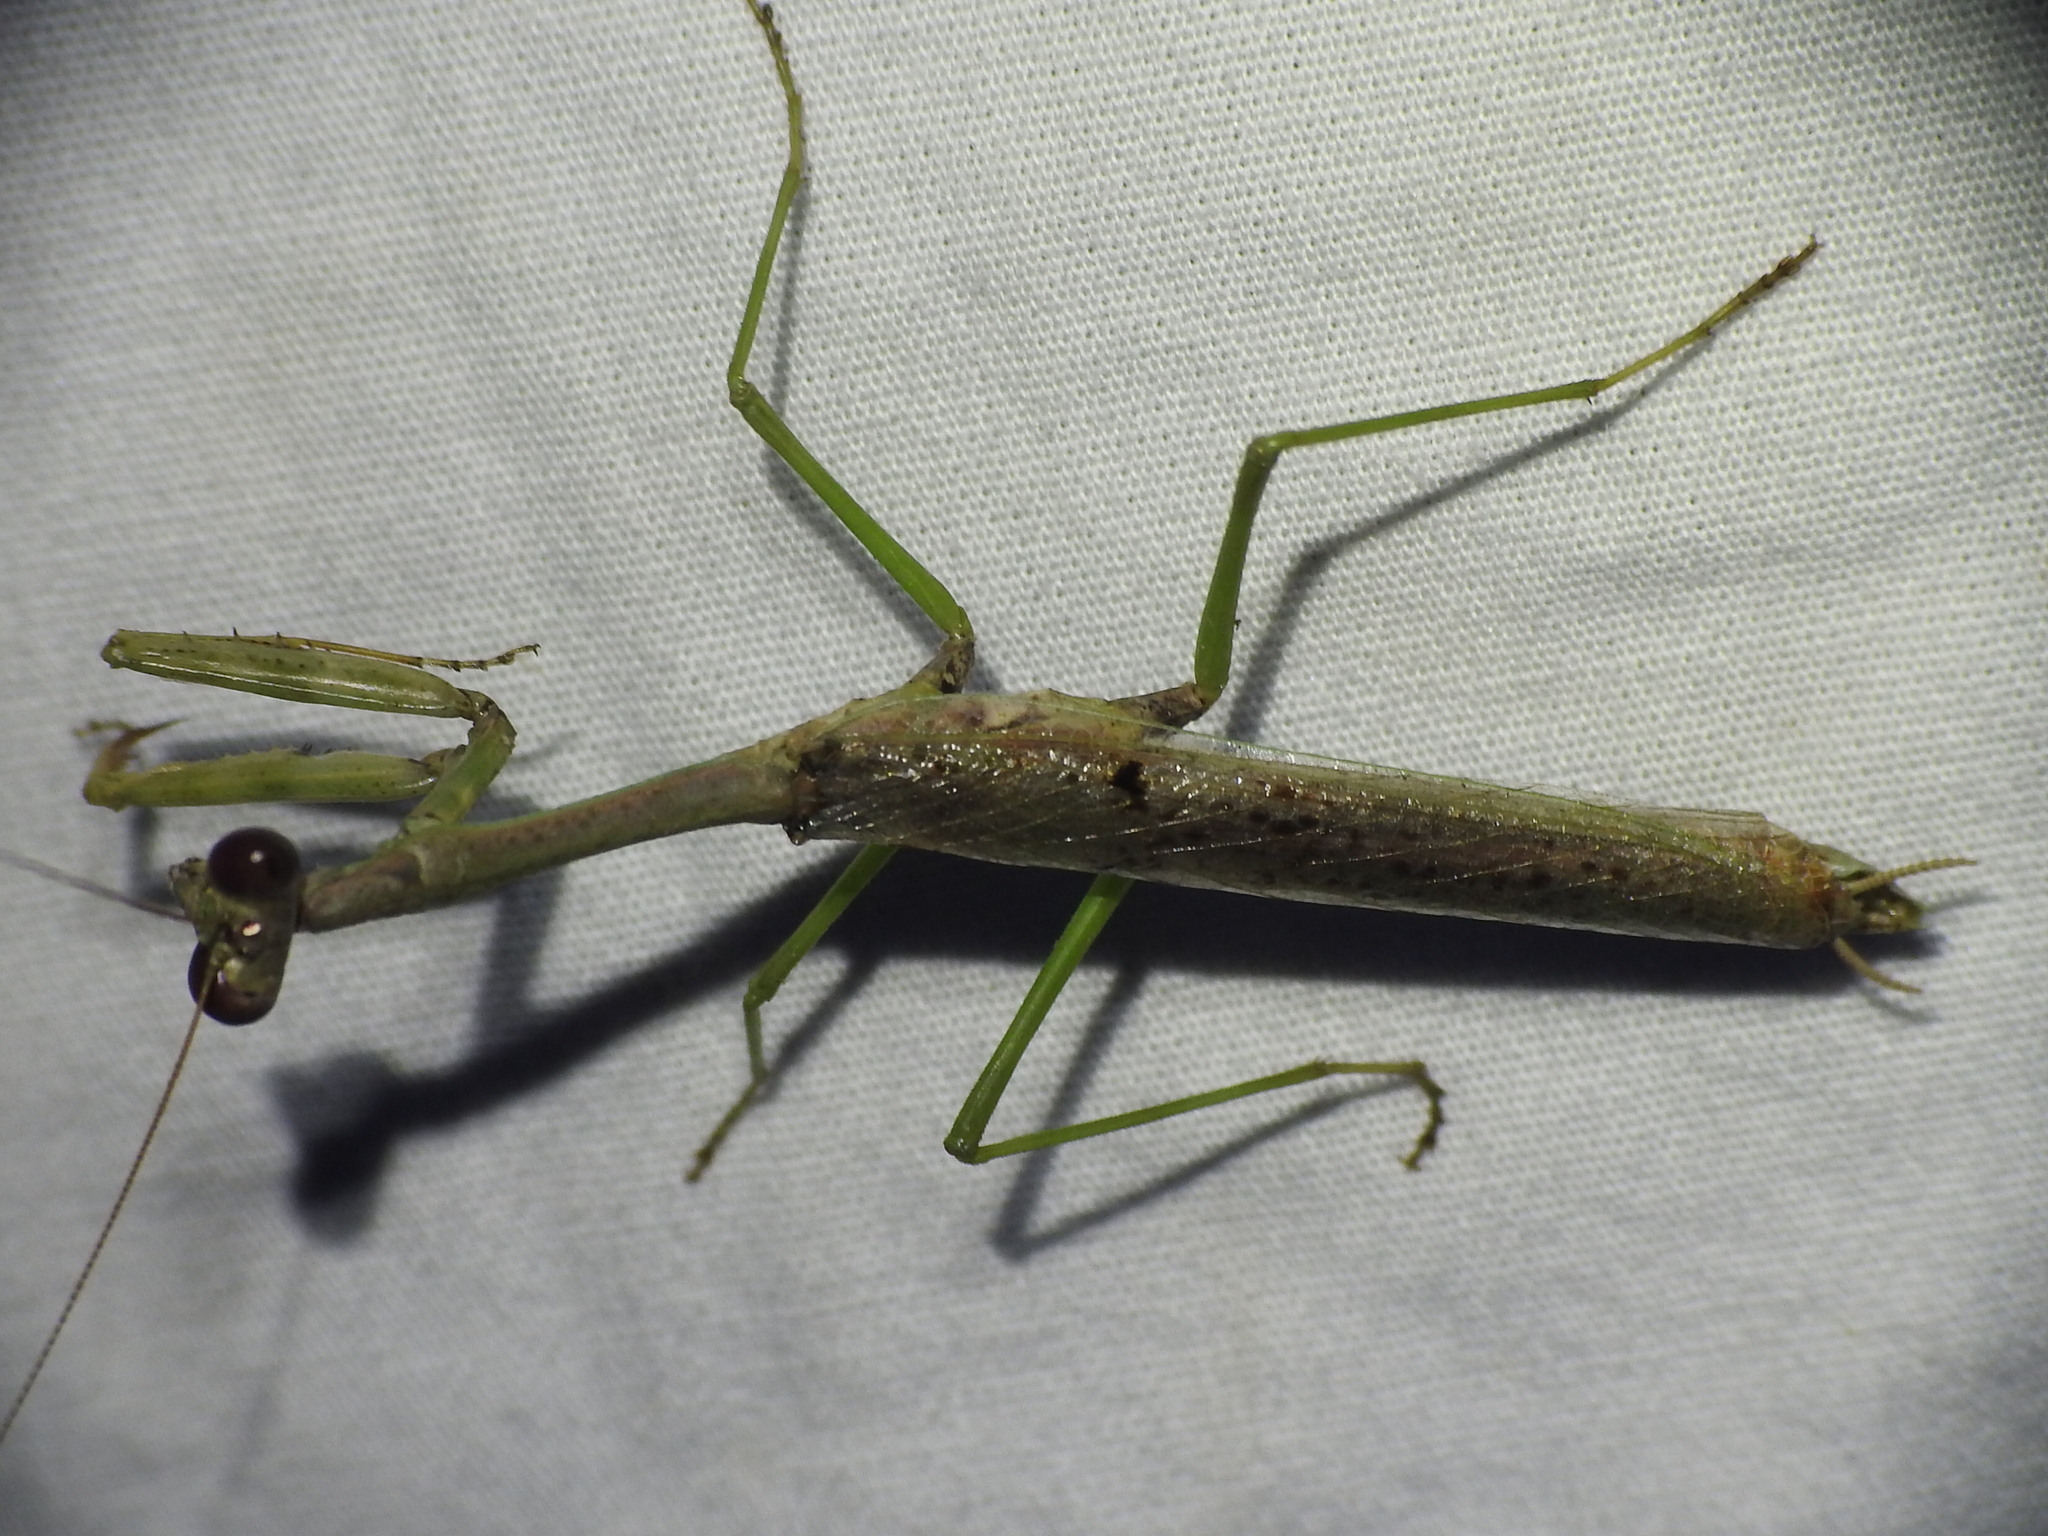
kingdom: Animalia
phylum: Arthropoda
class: Insecta
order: Mantodea
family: Mantidae
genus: Stagmomantis
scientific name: Stagmomantis resacae
